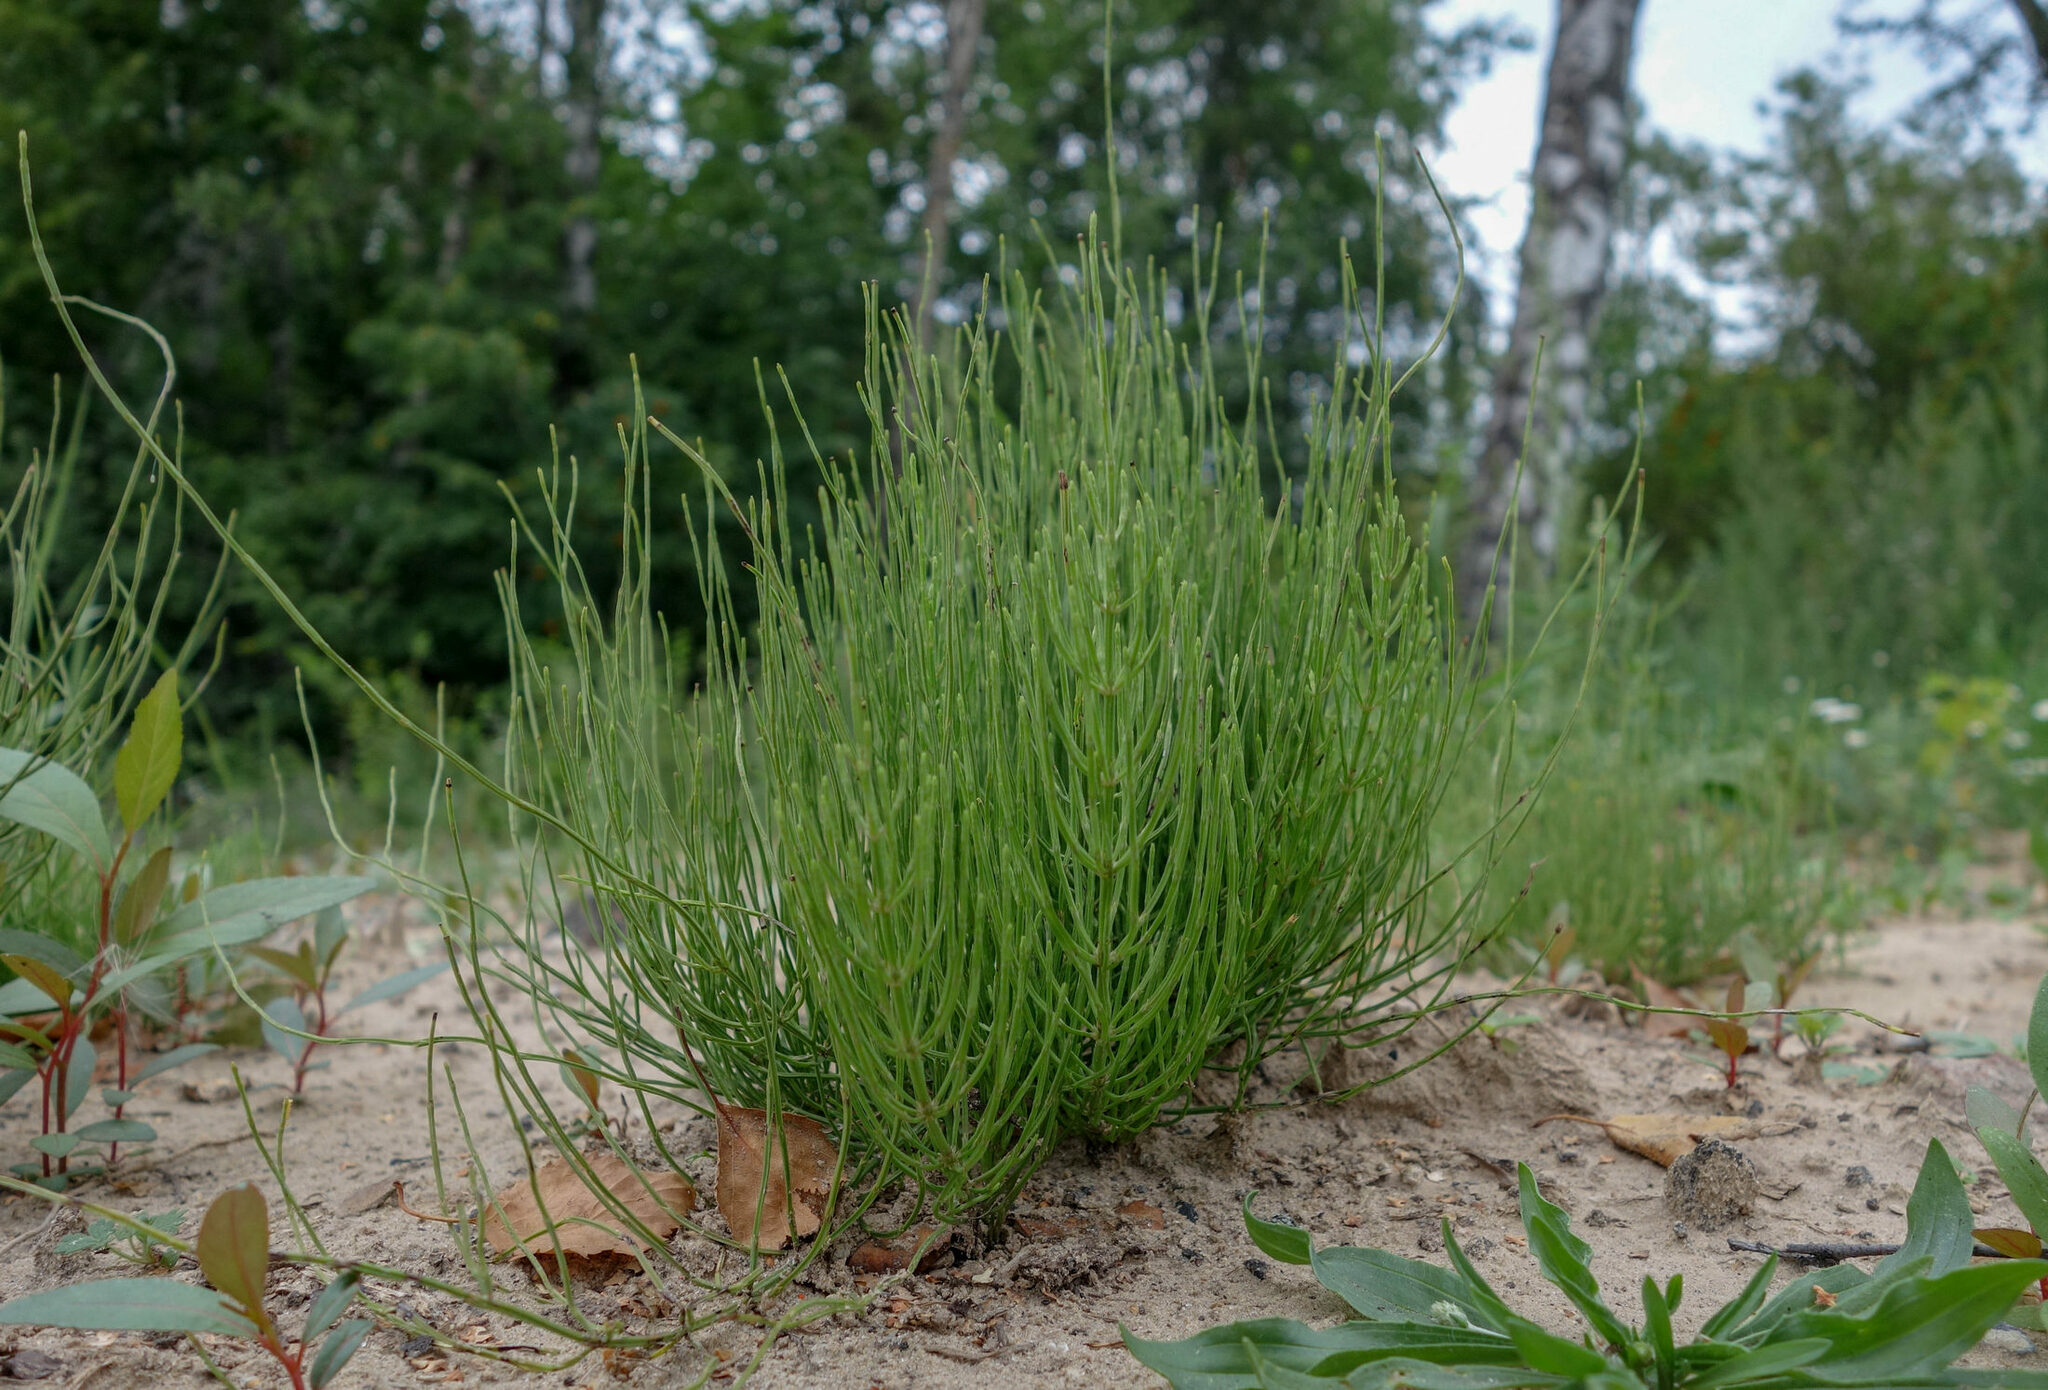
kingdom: Plantae
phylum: Tracheophyta
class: Polypodiopsida
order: Equisetales
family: Equisetaceae
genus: Equisetum
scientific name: Equisetum arvense
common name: Field horsetail
